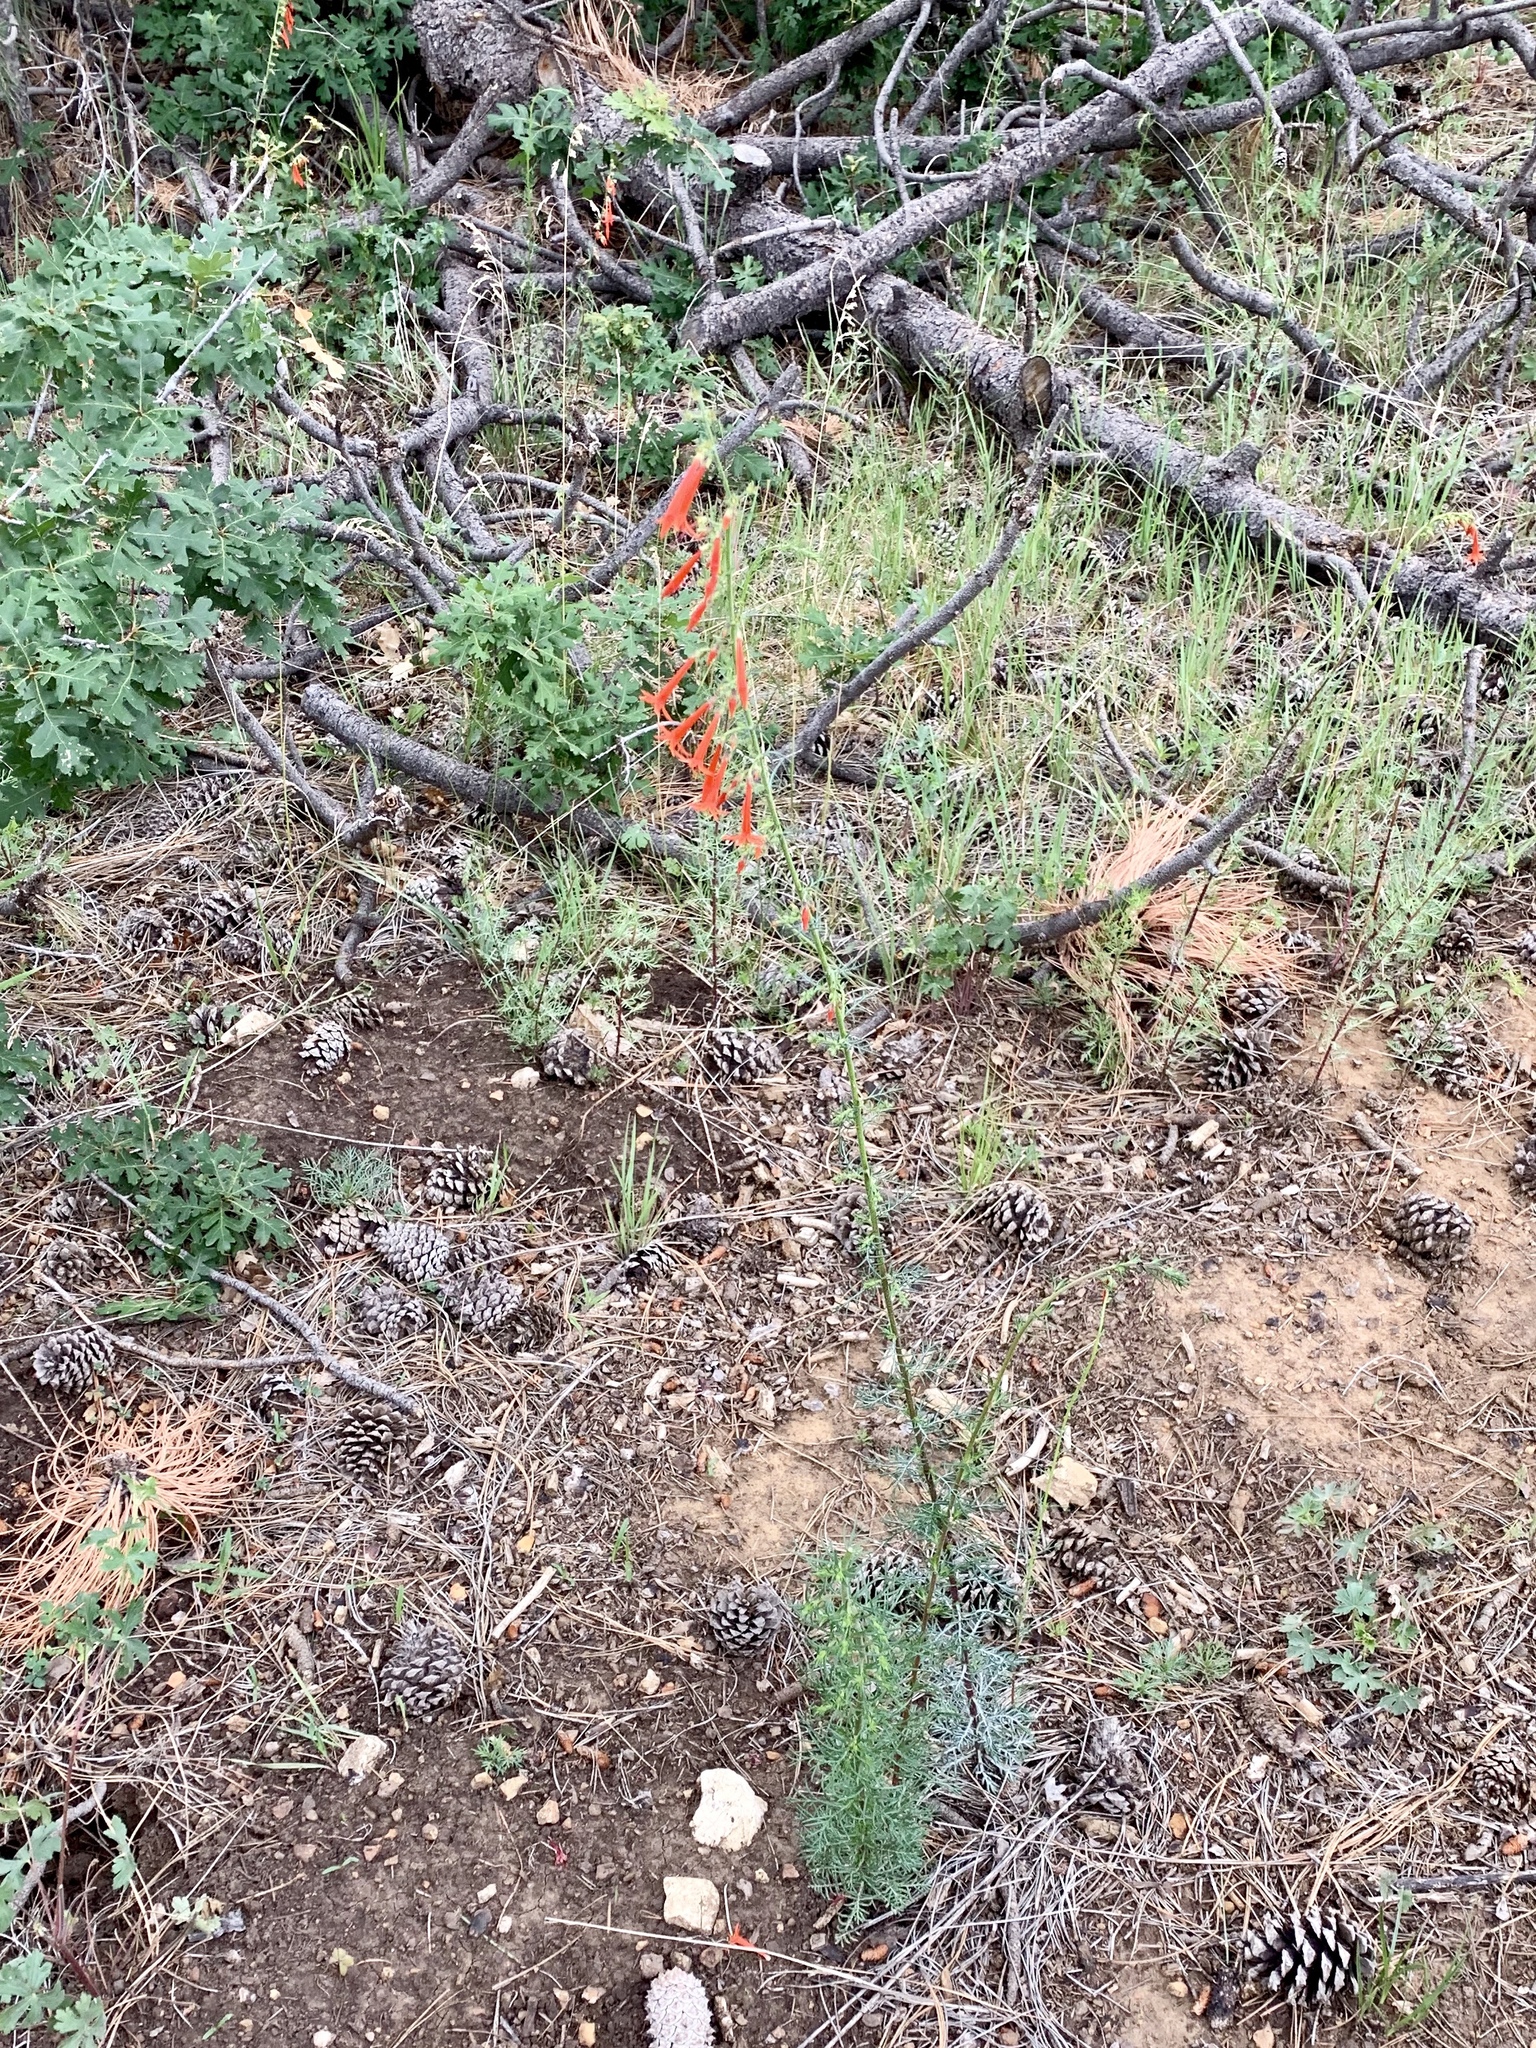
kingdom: Plantae
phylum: Tracheophyta
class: Magnoliopsida
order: Ericales
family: Polemoniaceae
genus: Ipomopsis
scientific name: Ipomopsis aggregata
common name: Scarlet gilia
